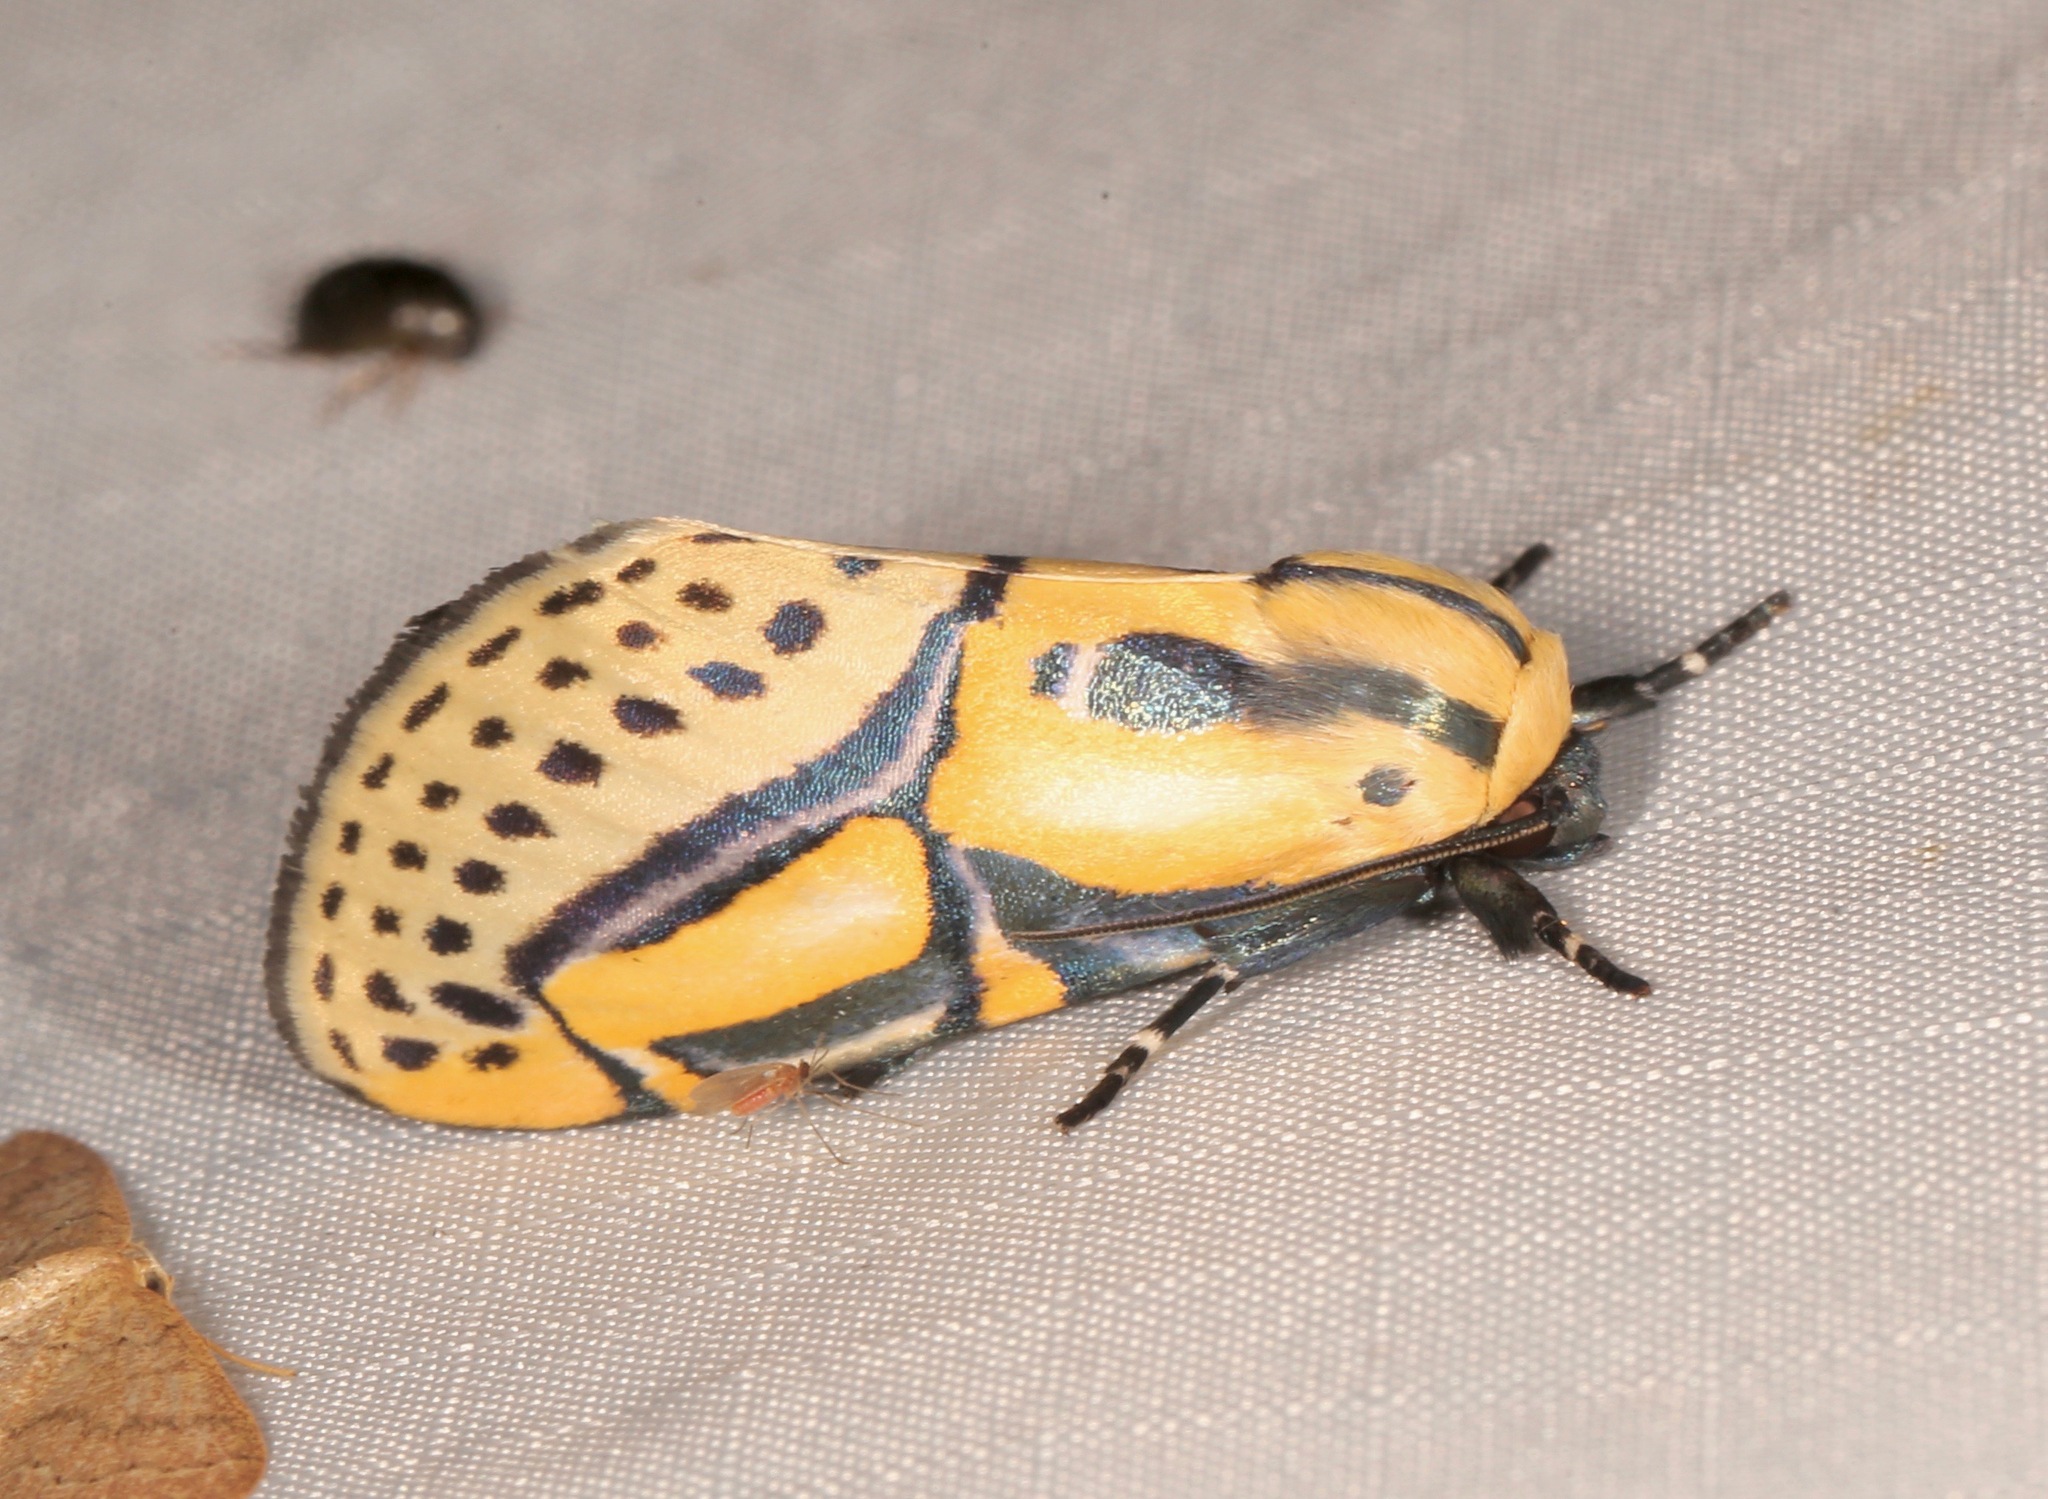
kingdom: Animalia
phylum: Arthropoda
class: Insecta
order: Lepidoptera
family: Erebidae
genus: Diphthera
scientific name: Diphthera festiva
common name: Hieroglyphic moth
